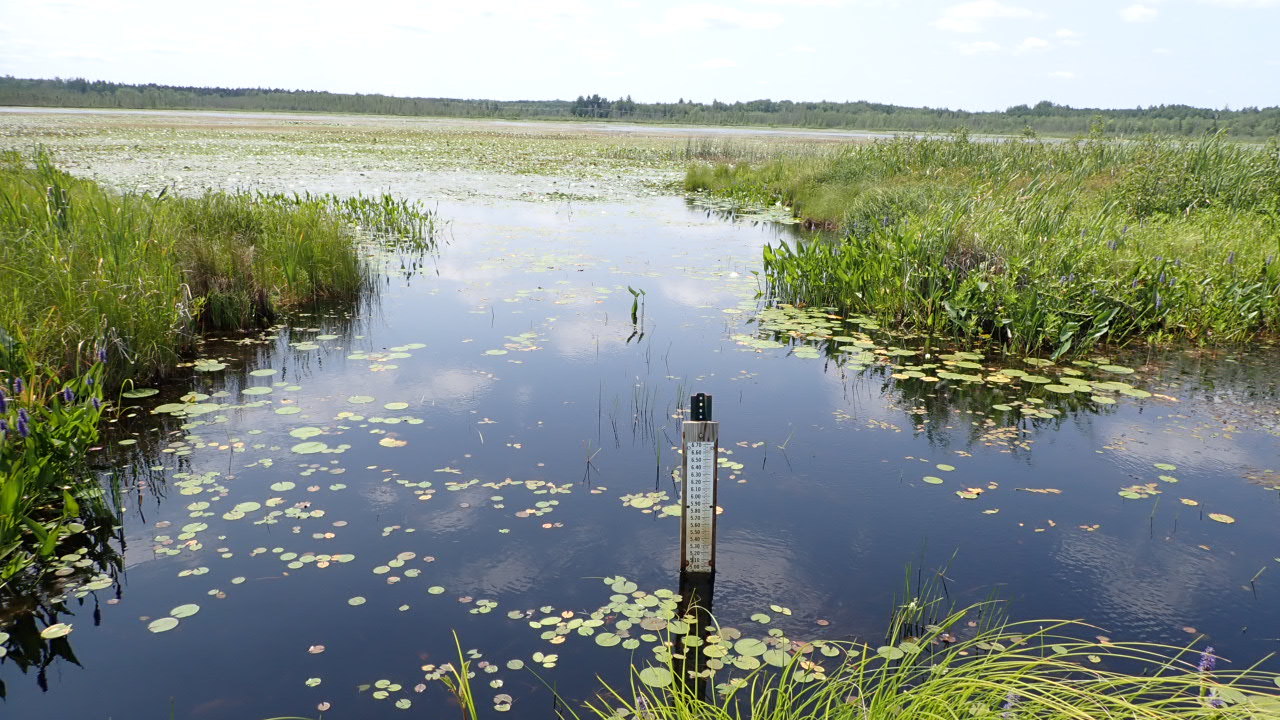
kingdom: Plantae
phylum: Tracheophyta
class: Magnoliopsida
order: Nymphaeales
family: Nymphaeaceae
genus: Nymphaea
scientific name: Nymphaea odorata
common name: Fragrant water-lily
